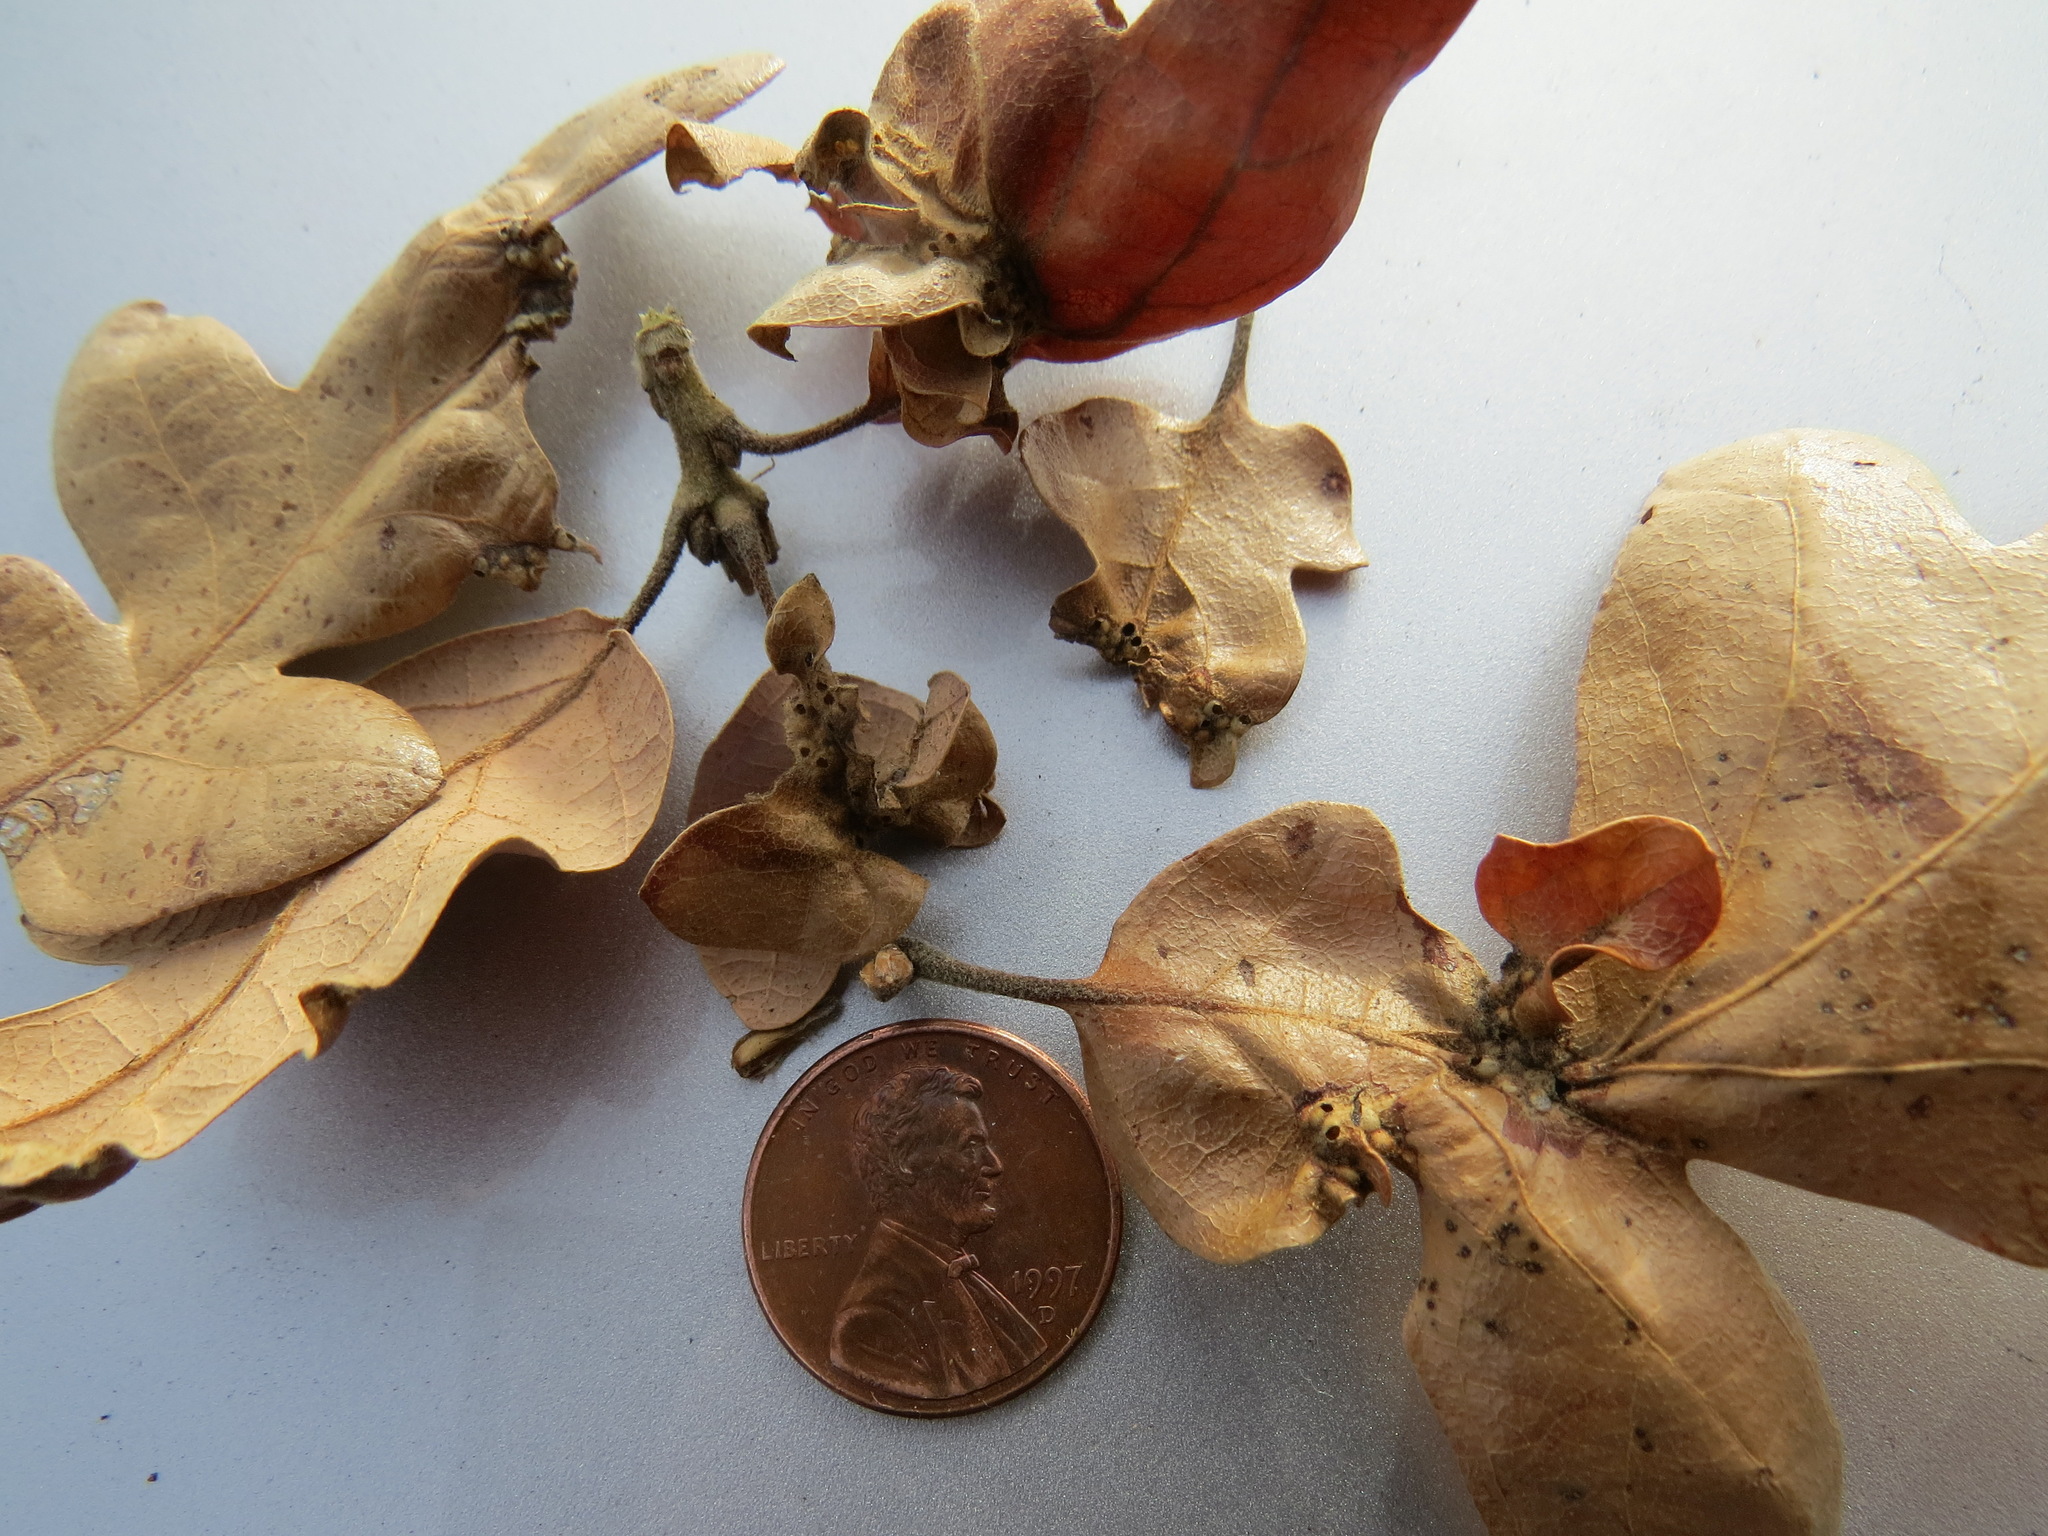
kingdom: Animalia
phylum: Arthropoda
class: Insecta
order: Hymenoptera
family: Cynipidae
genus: Neuroterus
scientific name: Neuroterus saltarius
